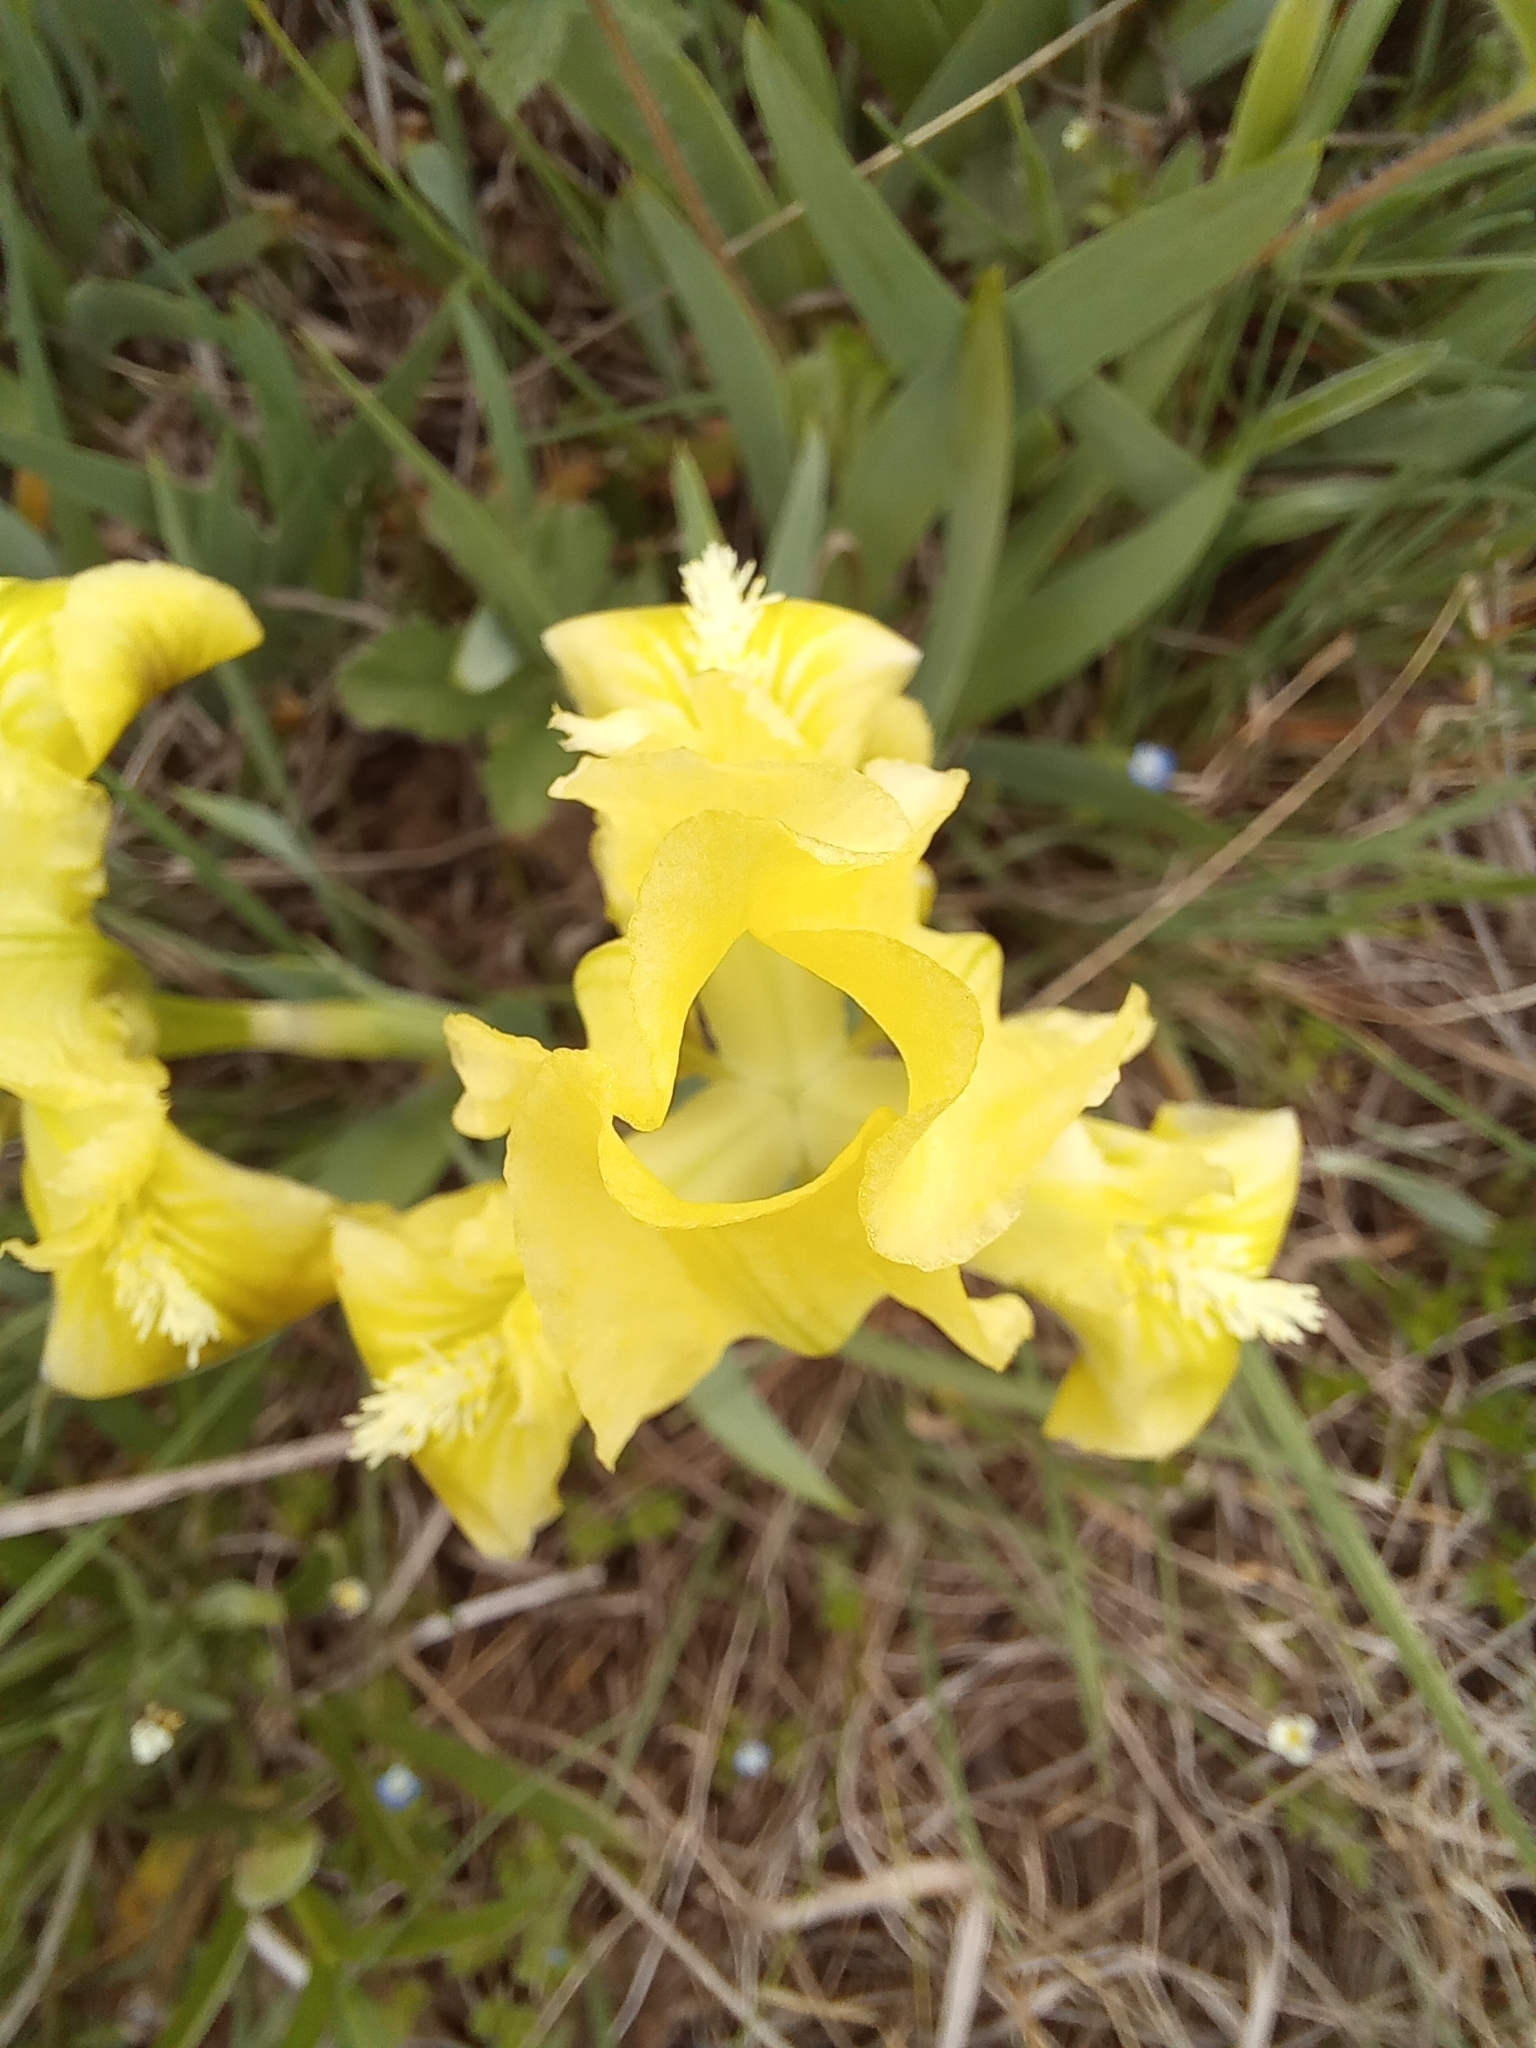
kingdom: Plantae
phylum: Tracheophyta
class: Liliopsida
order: Asparagales
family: Iridaceae
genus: Iris
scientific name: Iris pumila
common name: Dwarf iris
